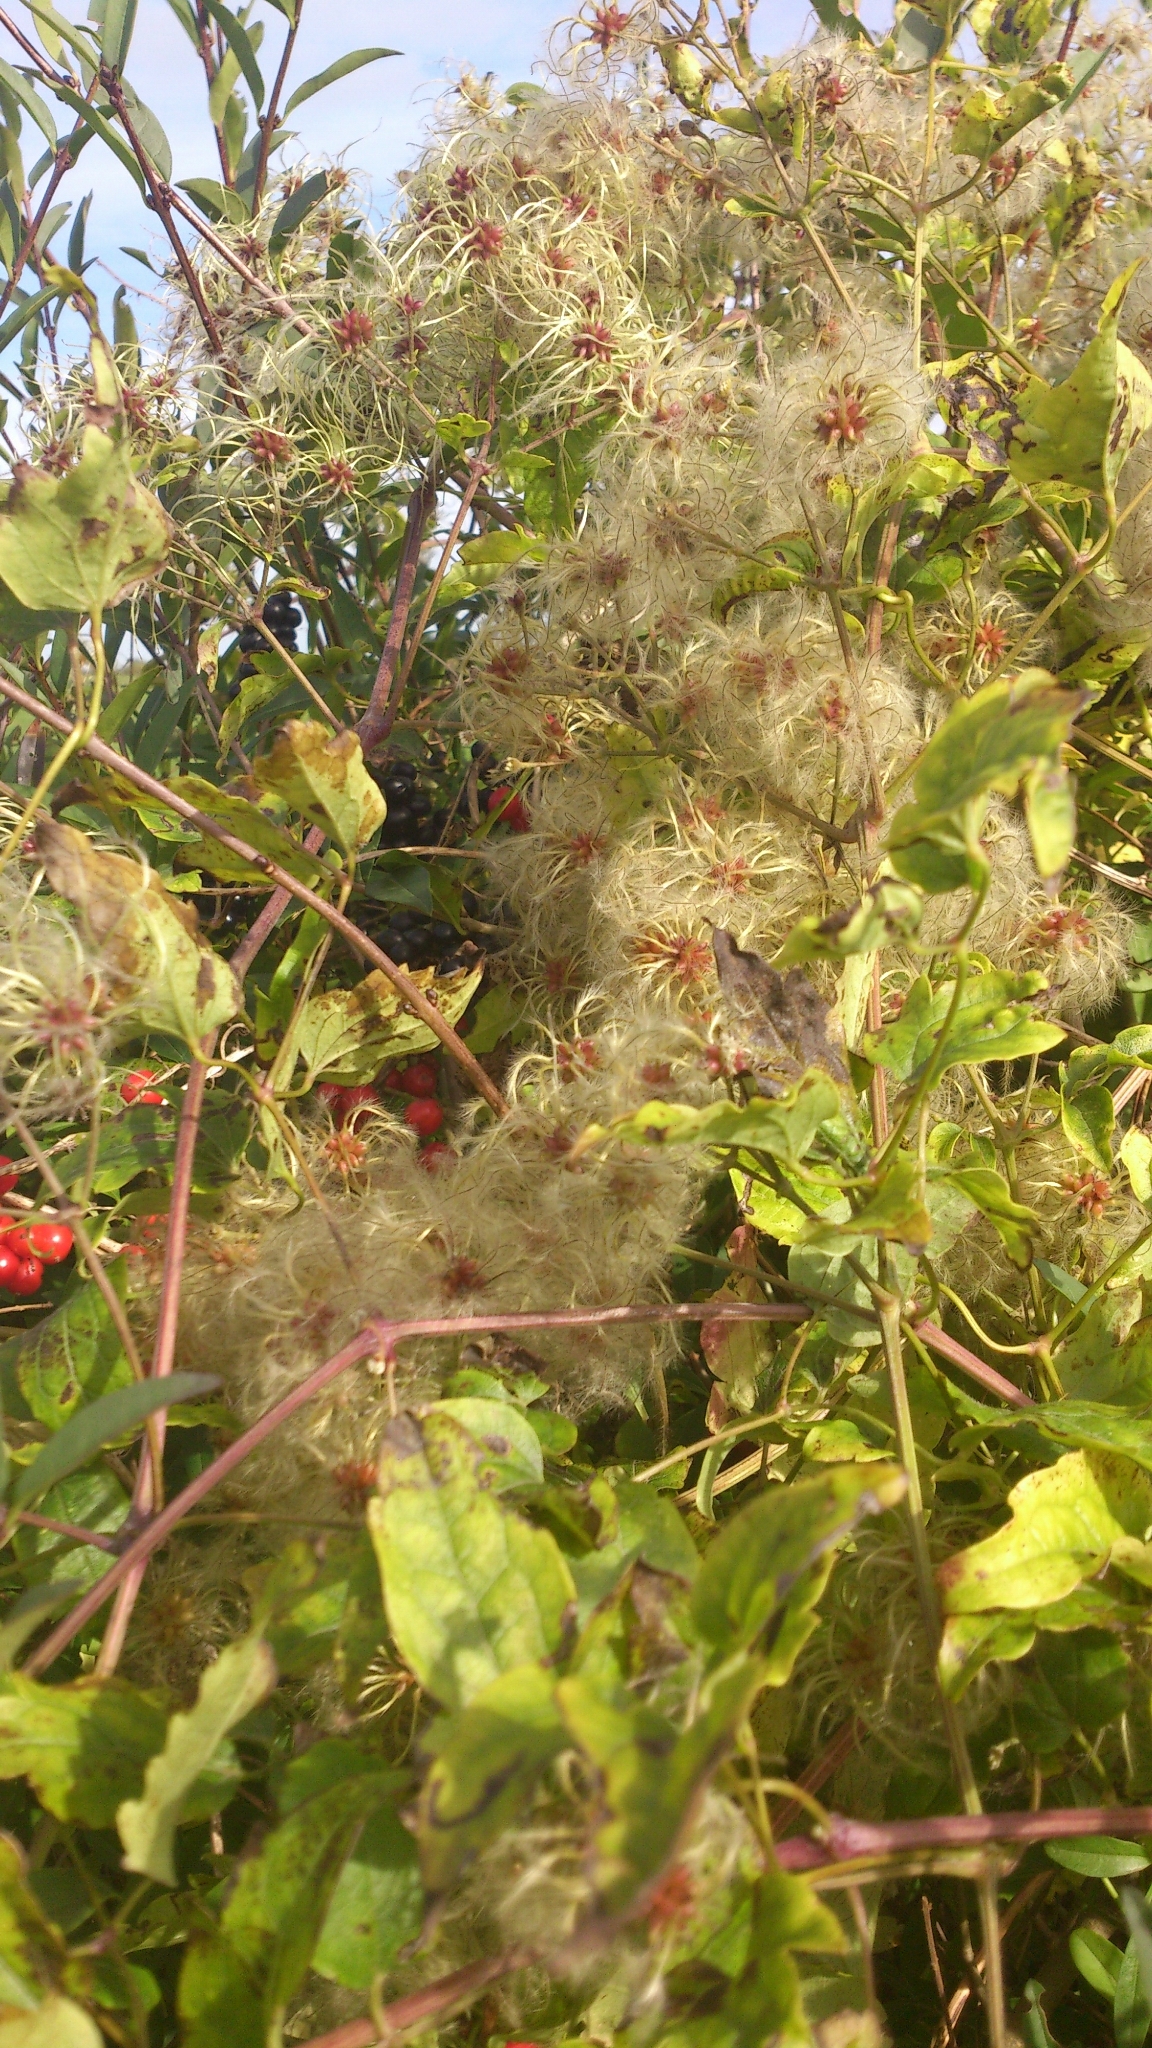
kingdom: Plantae
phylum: Tracheophyta
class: Magnoliopsida
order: Ranunculales
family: Ranunculaceae
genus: Clematis
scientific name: Clematis vitalba
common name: Evergreen clematis
